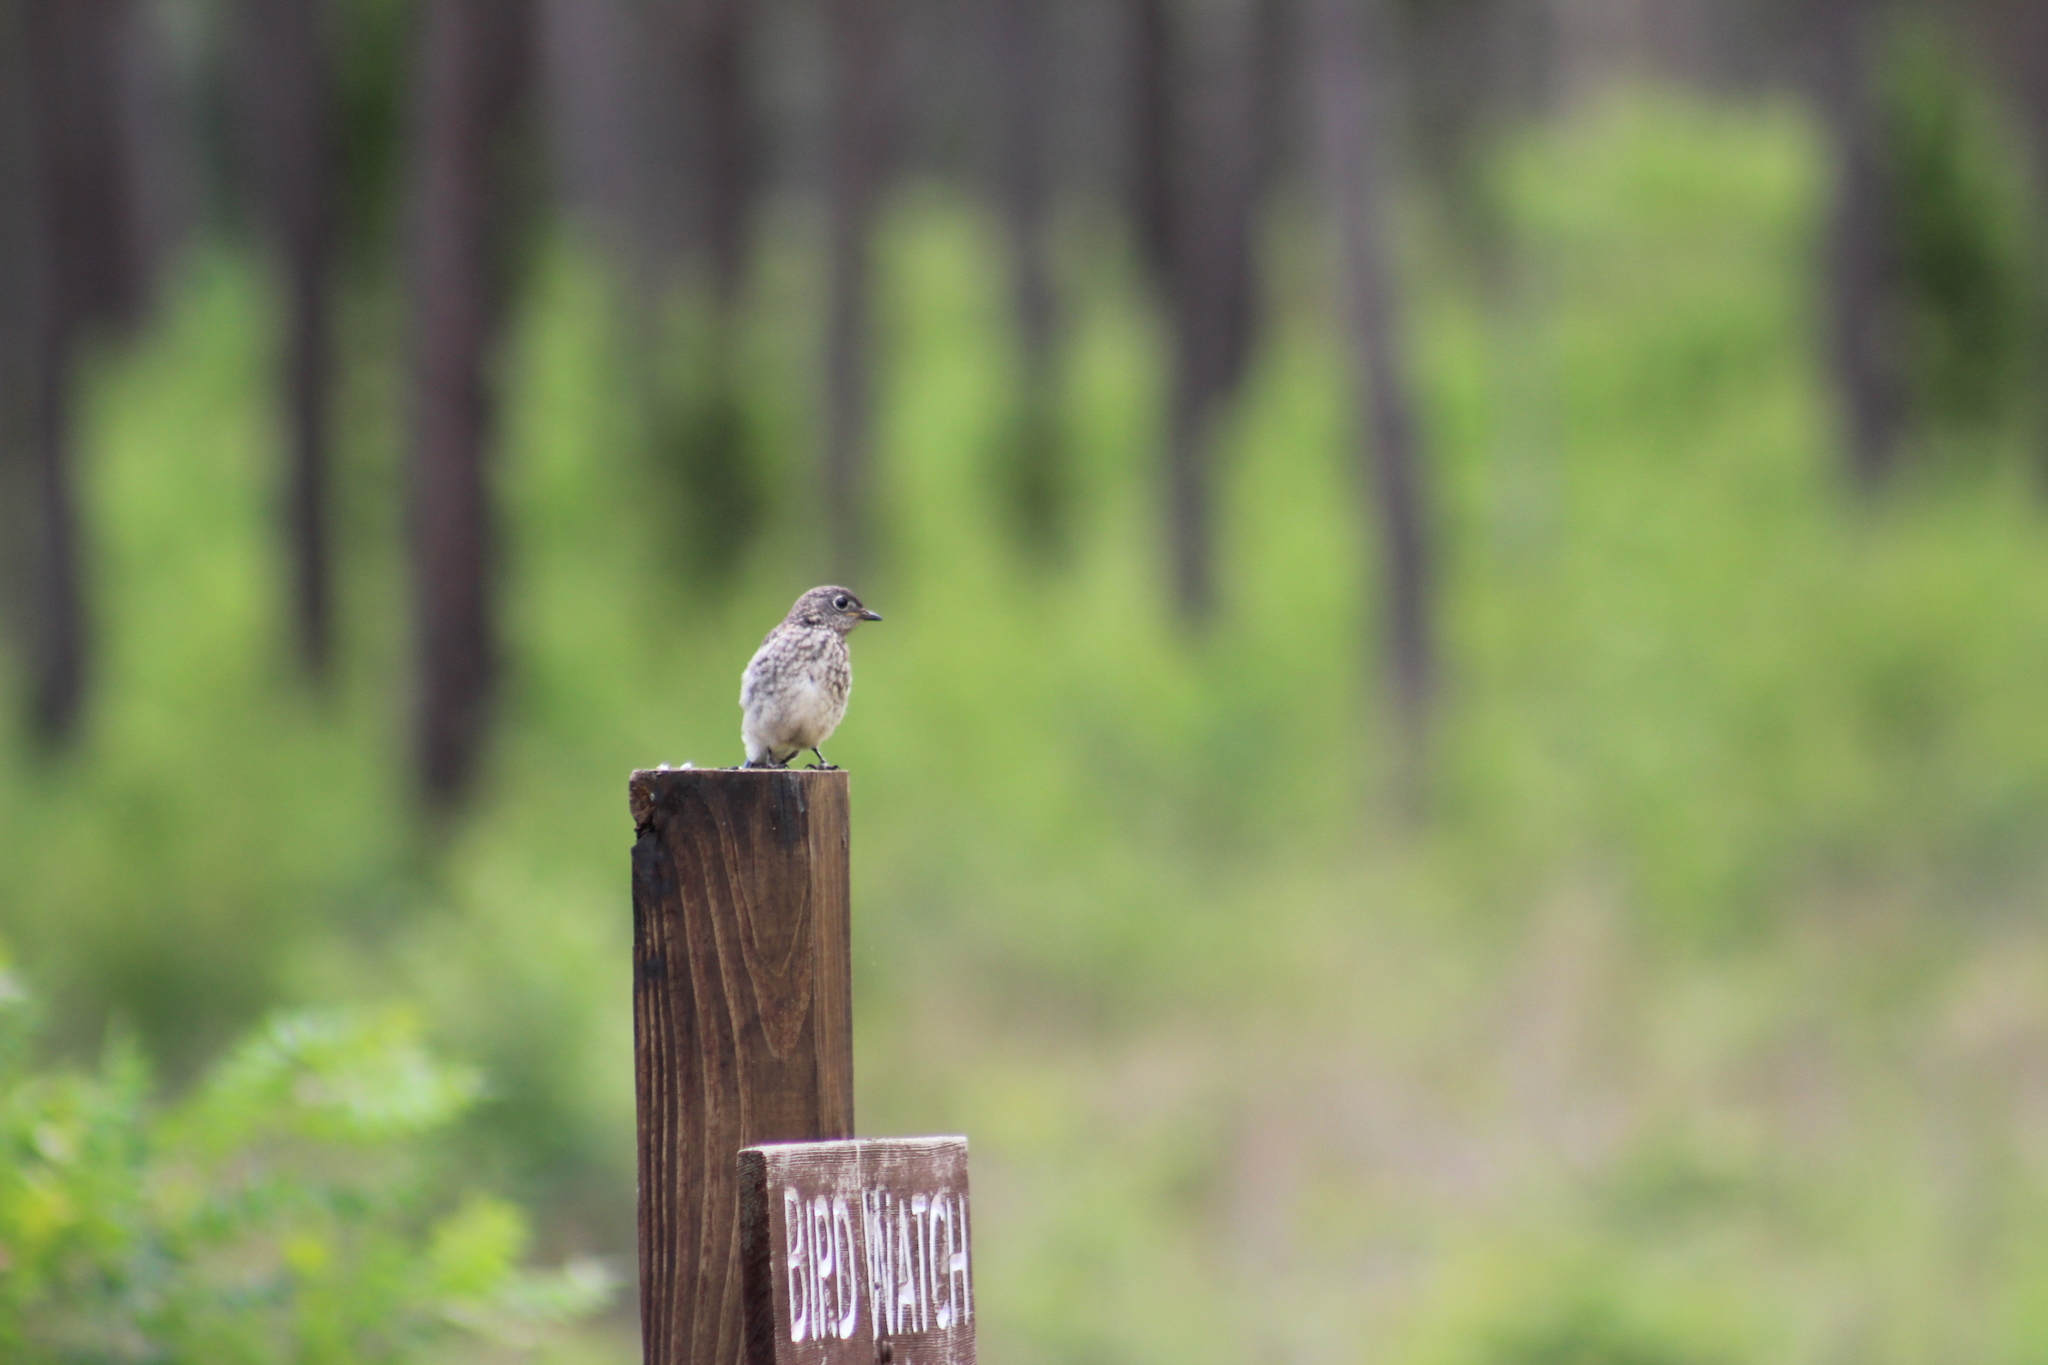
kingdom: Animalia
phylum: Chordata
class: Aves
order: Passeriformes
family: Turdidae
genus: Sialia
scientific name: Sialia sialis
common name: Eastern bluebird
